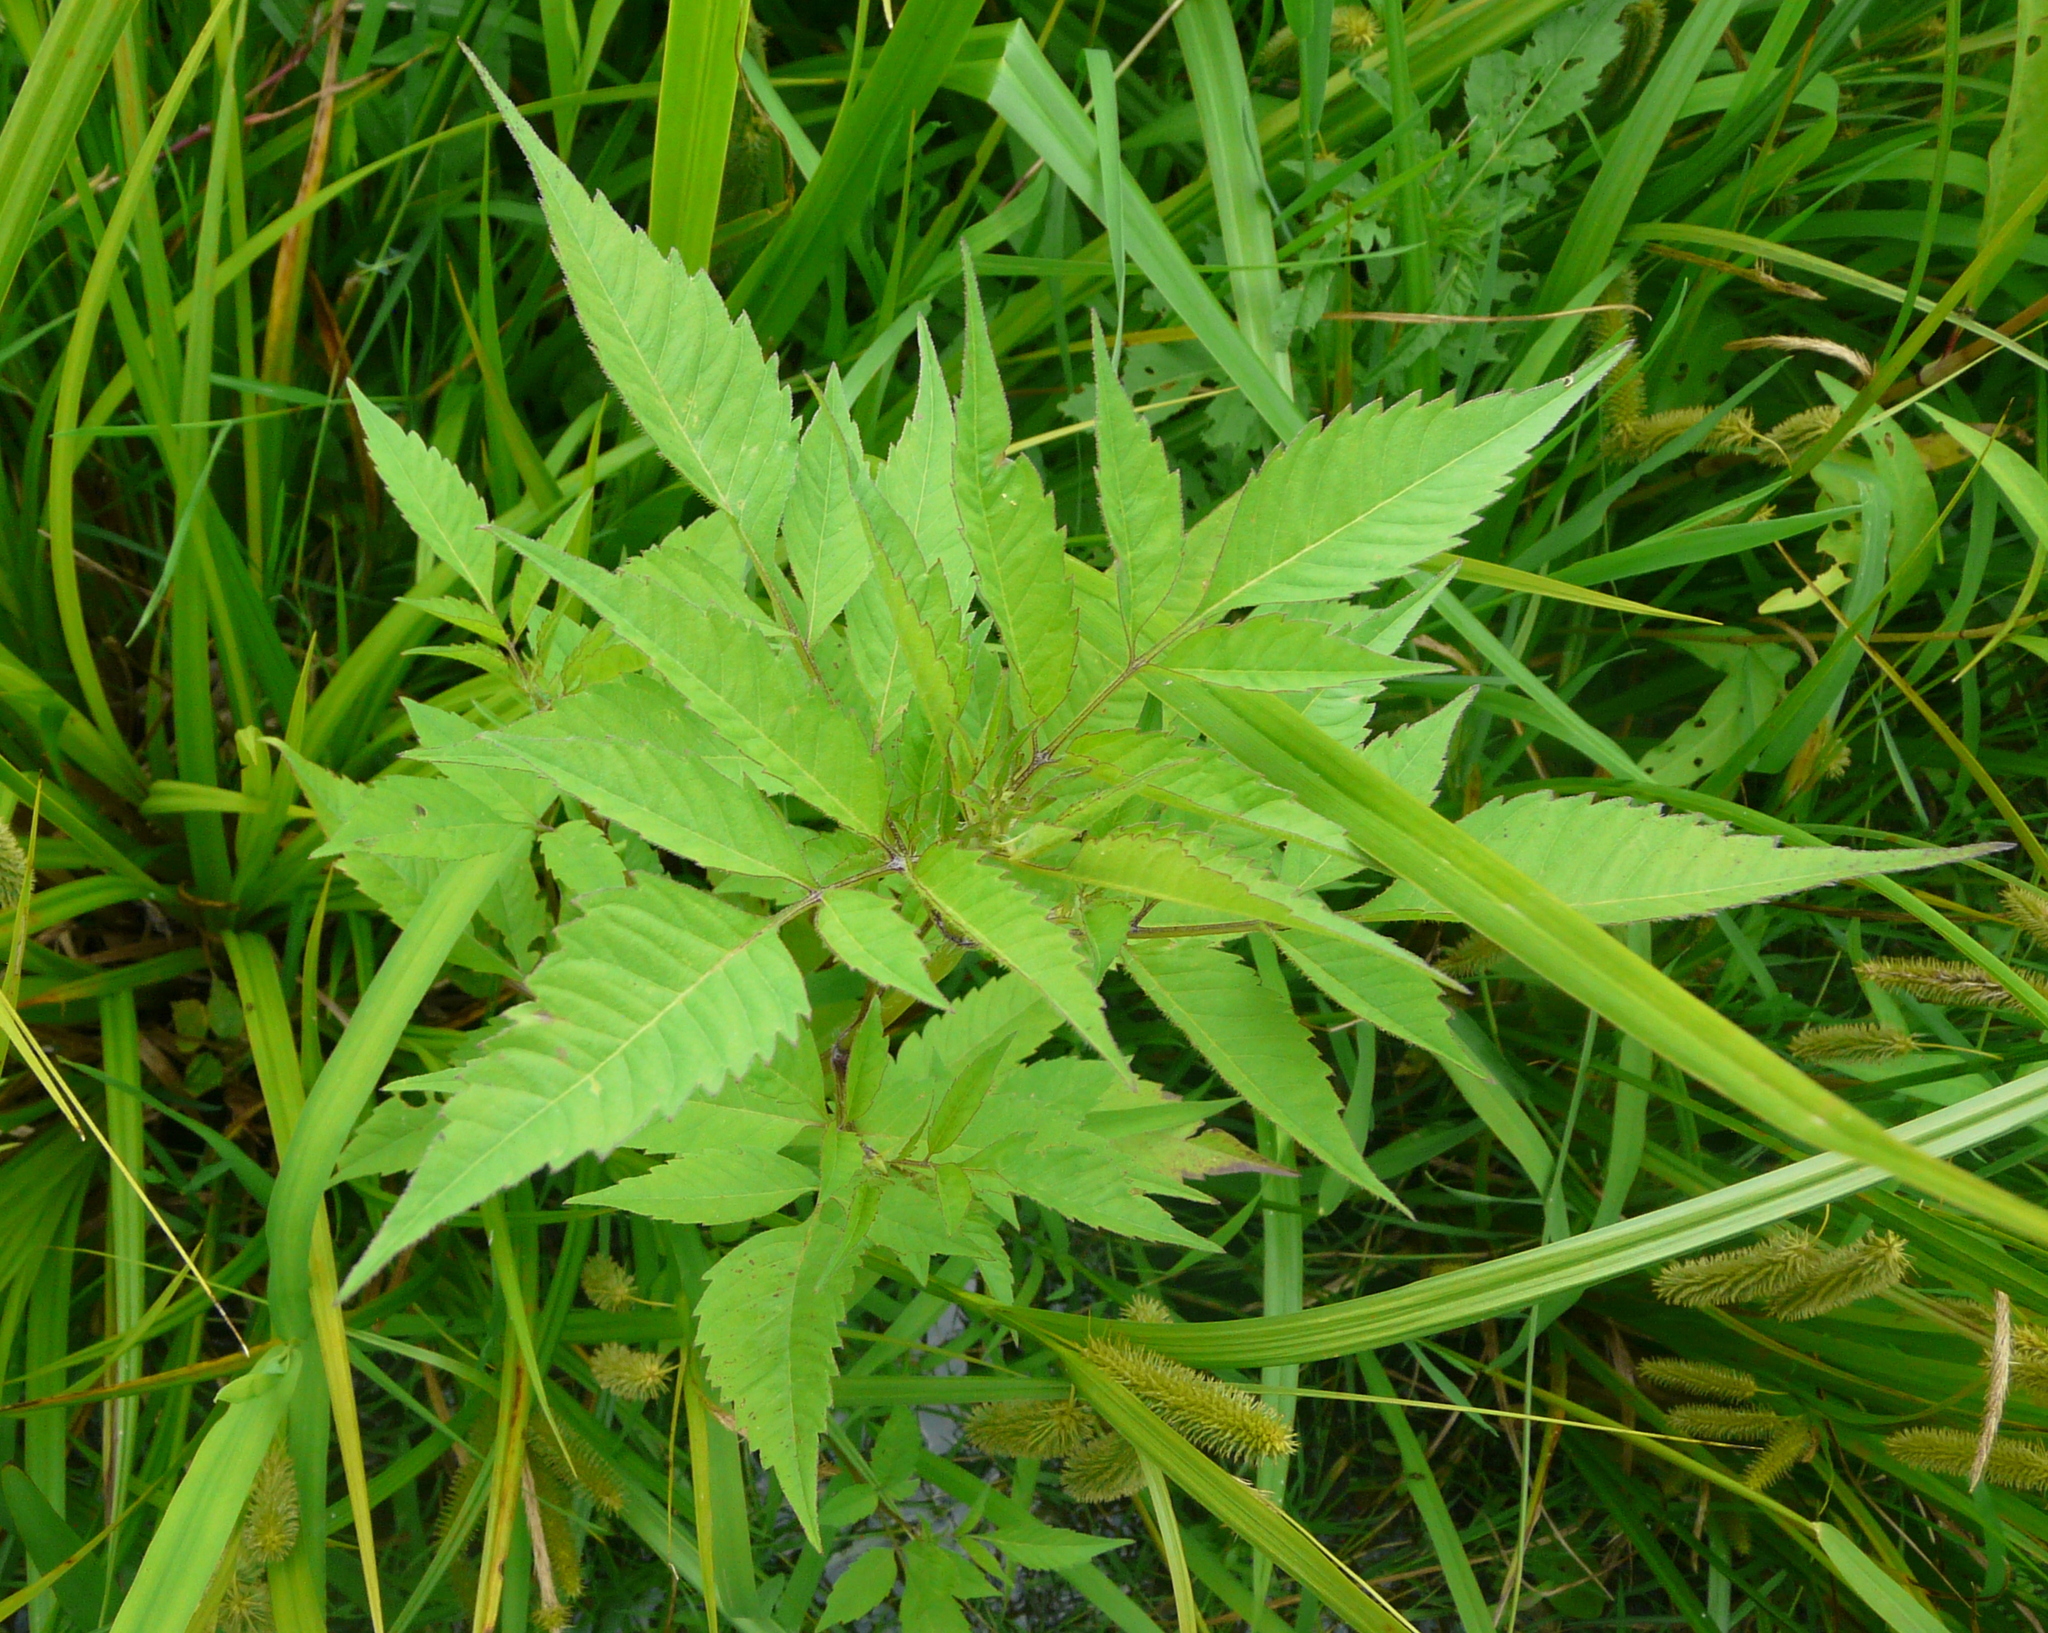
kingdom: Plantae
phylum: Tracheophyta
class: Magnoliopsida
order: Asterales
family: Asteraceae
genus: Bidens
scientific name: Bidens frondosa
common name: Beggarticks
